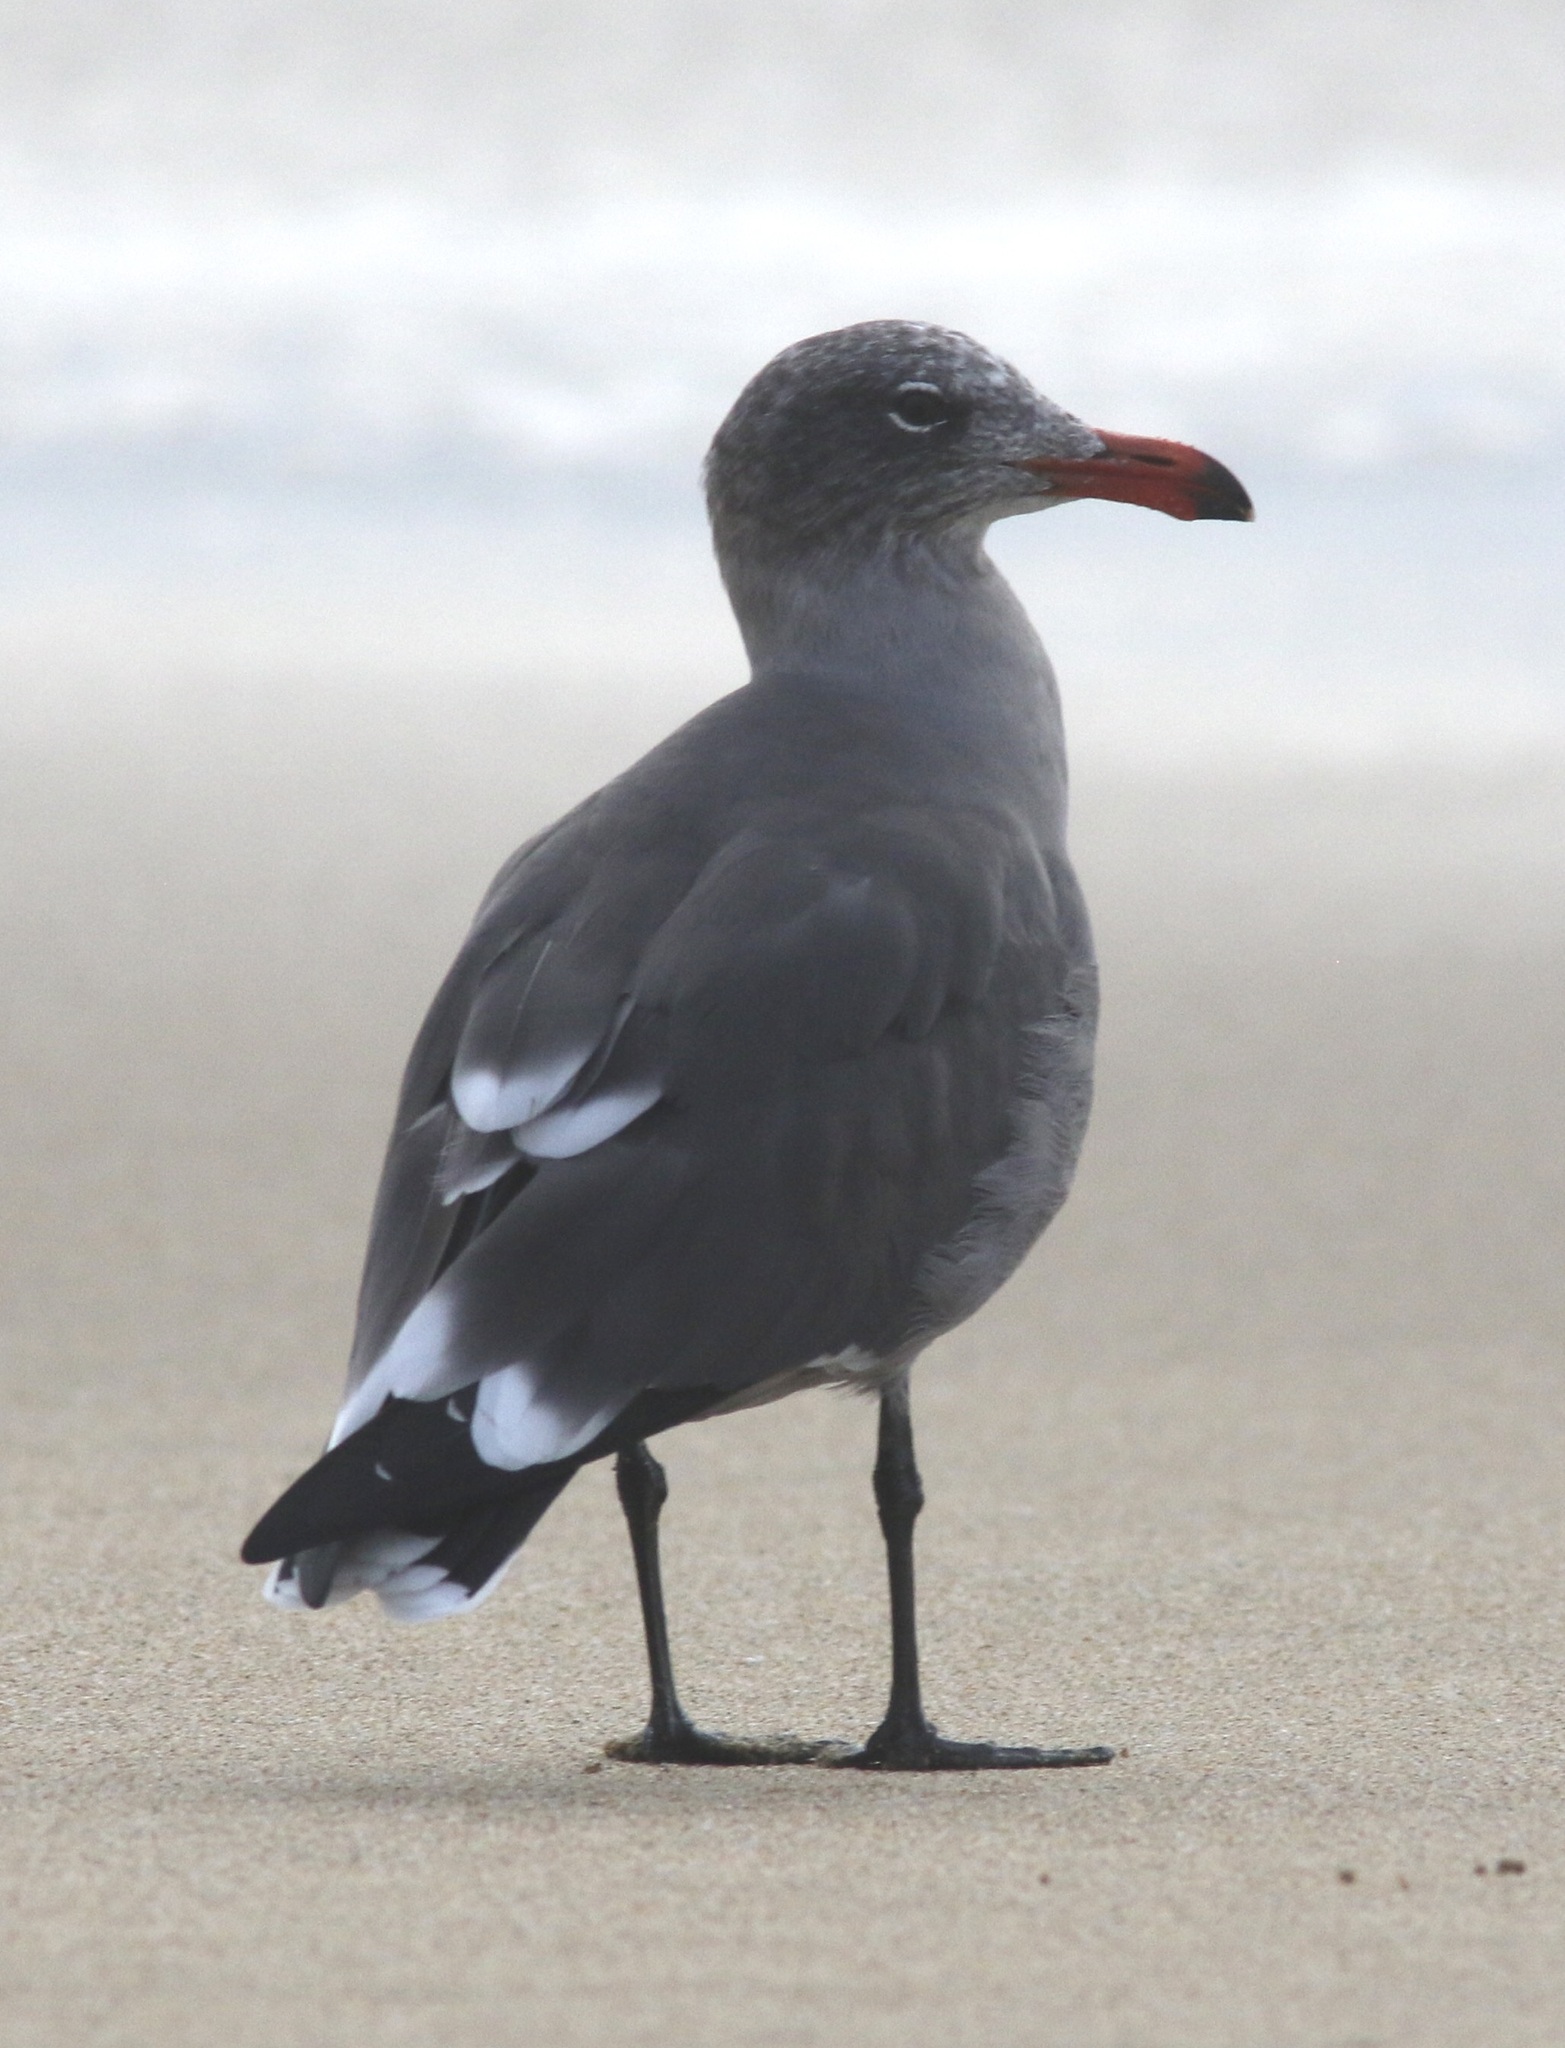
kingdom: Animalia
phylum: Chordata
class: Aves
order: Charadriiformes
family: Laridae
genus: Larus
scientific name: Larus heermanni
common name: Heermann's gull
